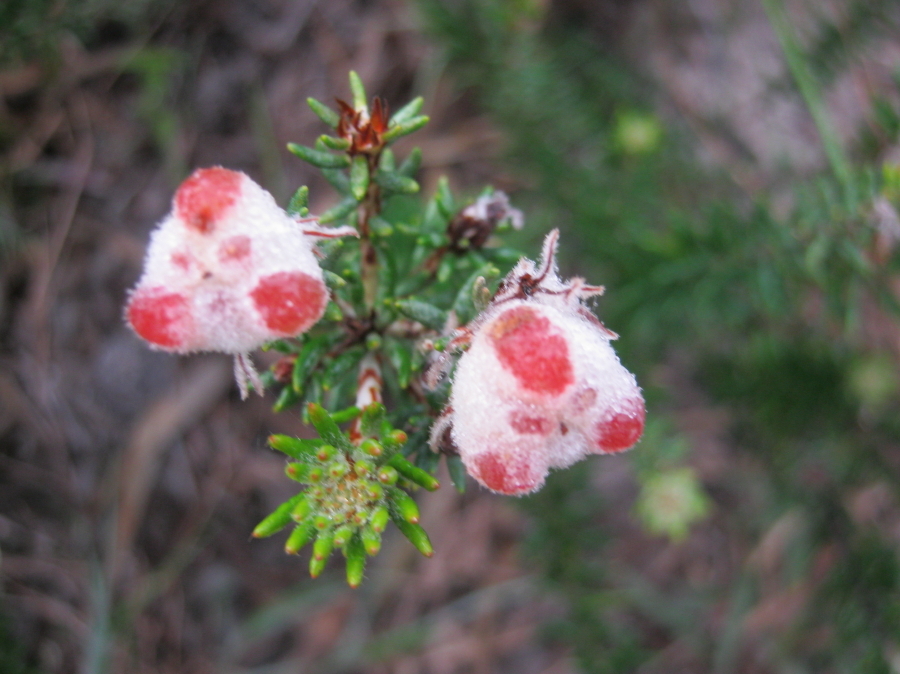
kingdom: Plantae
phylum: Tracheophyta
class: Magnoliopsida
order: Rosales
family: Rhamnaceae
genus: Trichocephalus
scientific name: Trichocephalus stipularis
